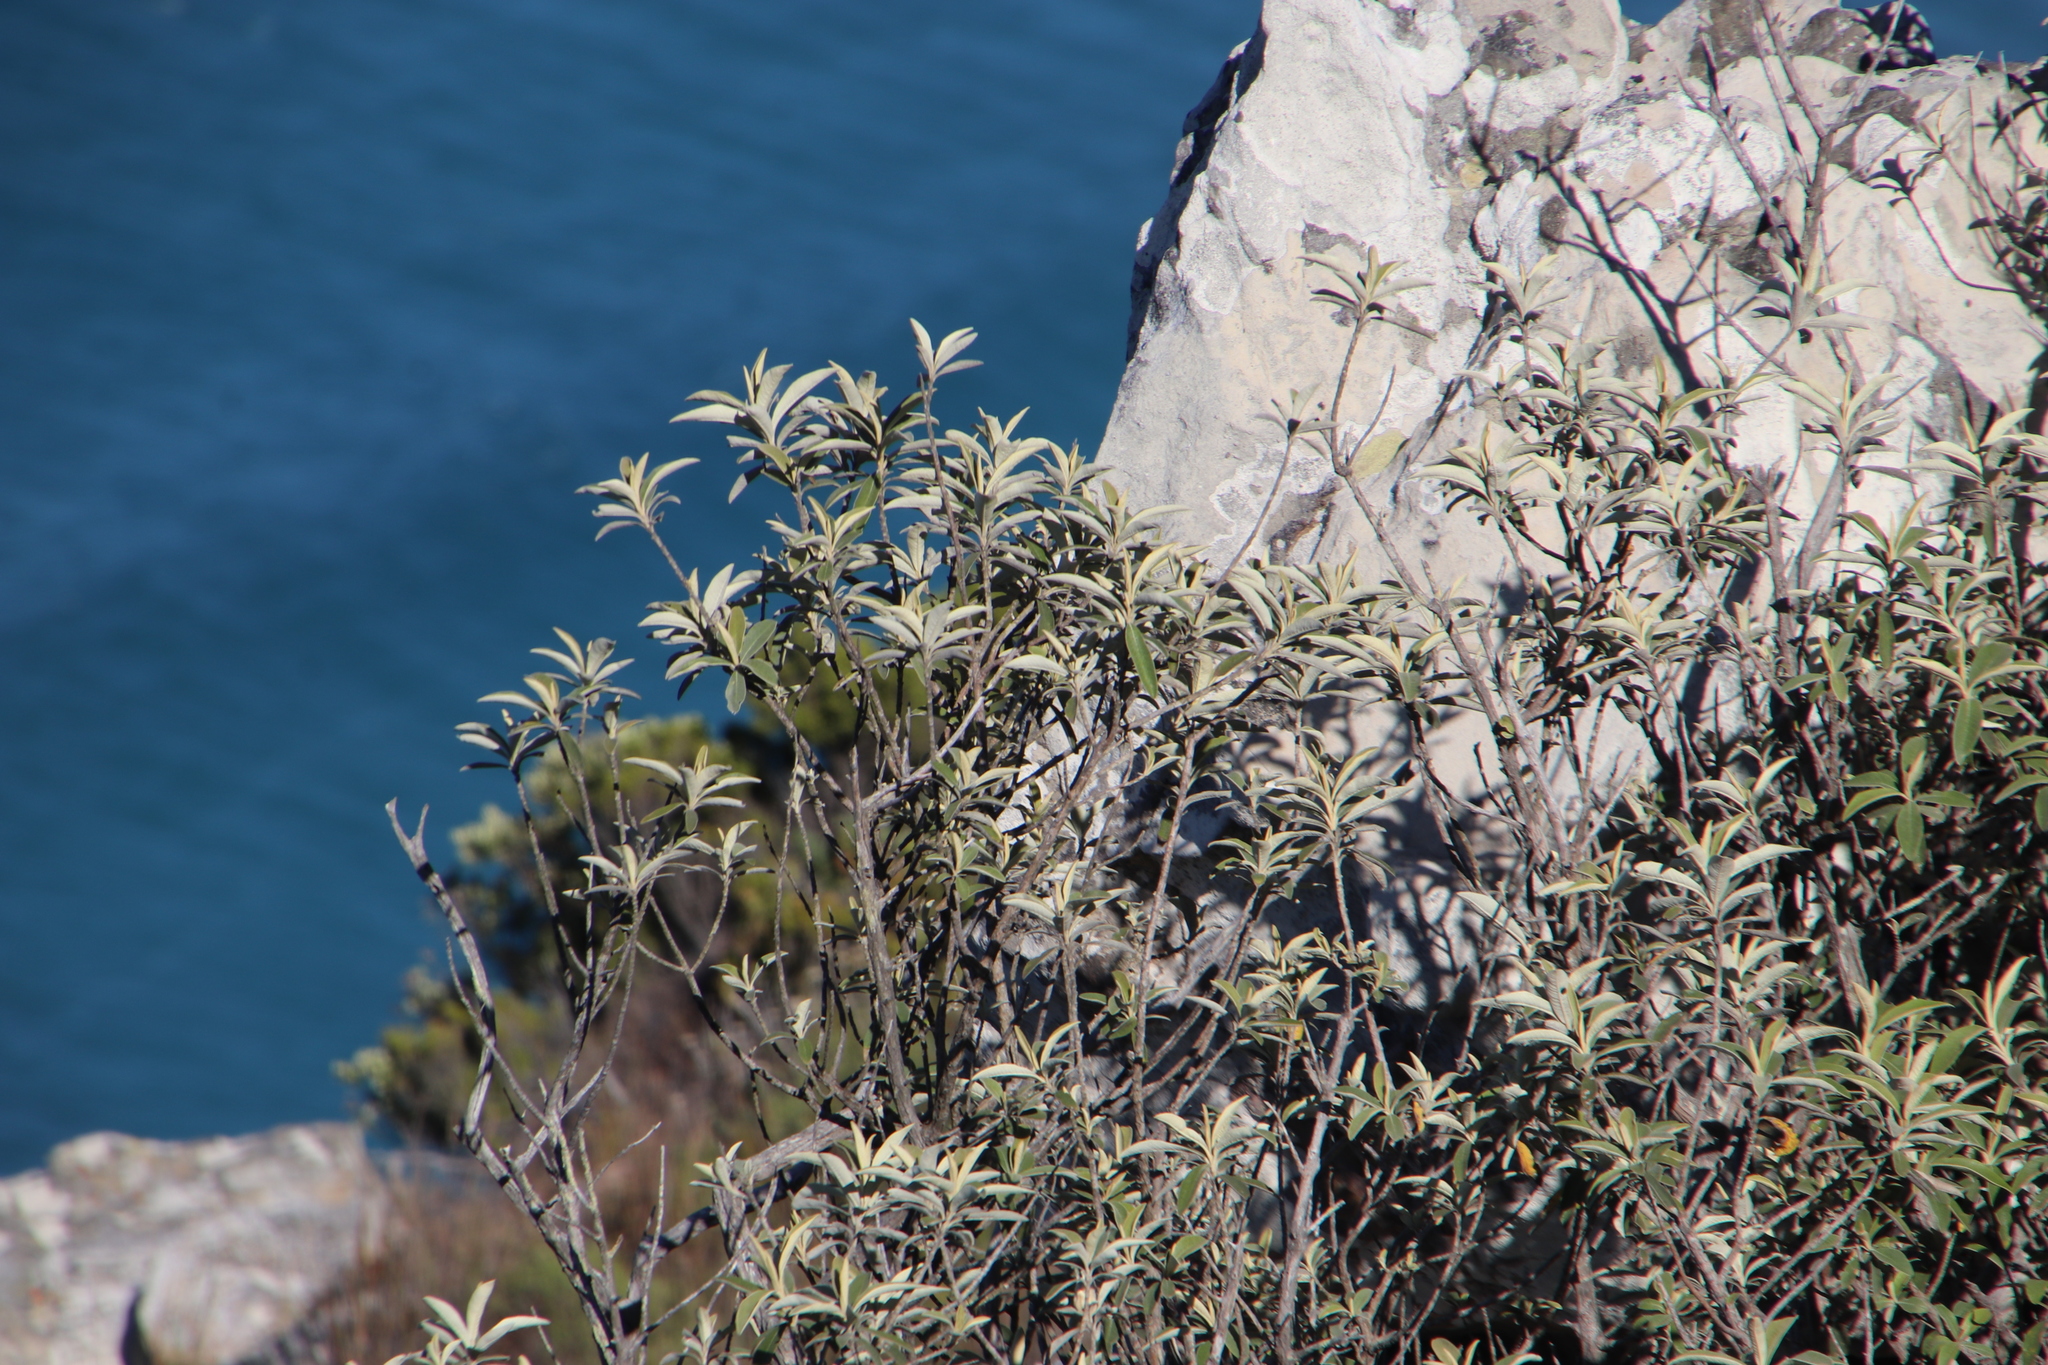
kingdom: Plantae
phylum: Tracheophyta
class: Magnoliopsida
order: Asterales
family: Asteraceae
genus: Tarchonanthus
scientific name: Tarchonanthus littoralis
